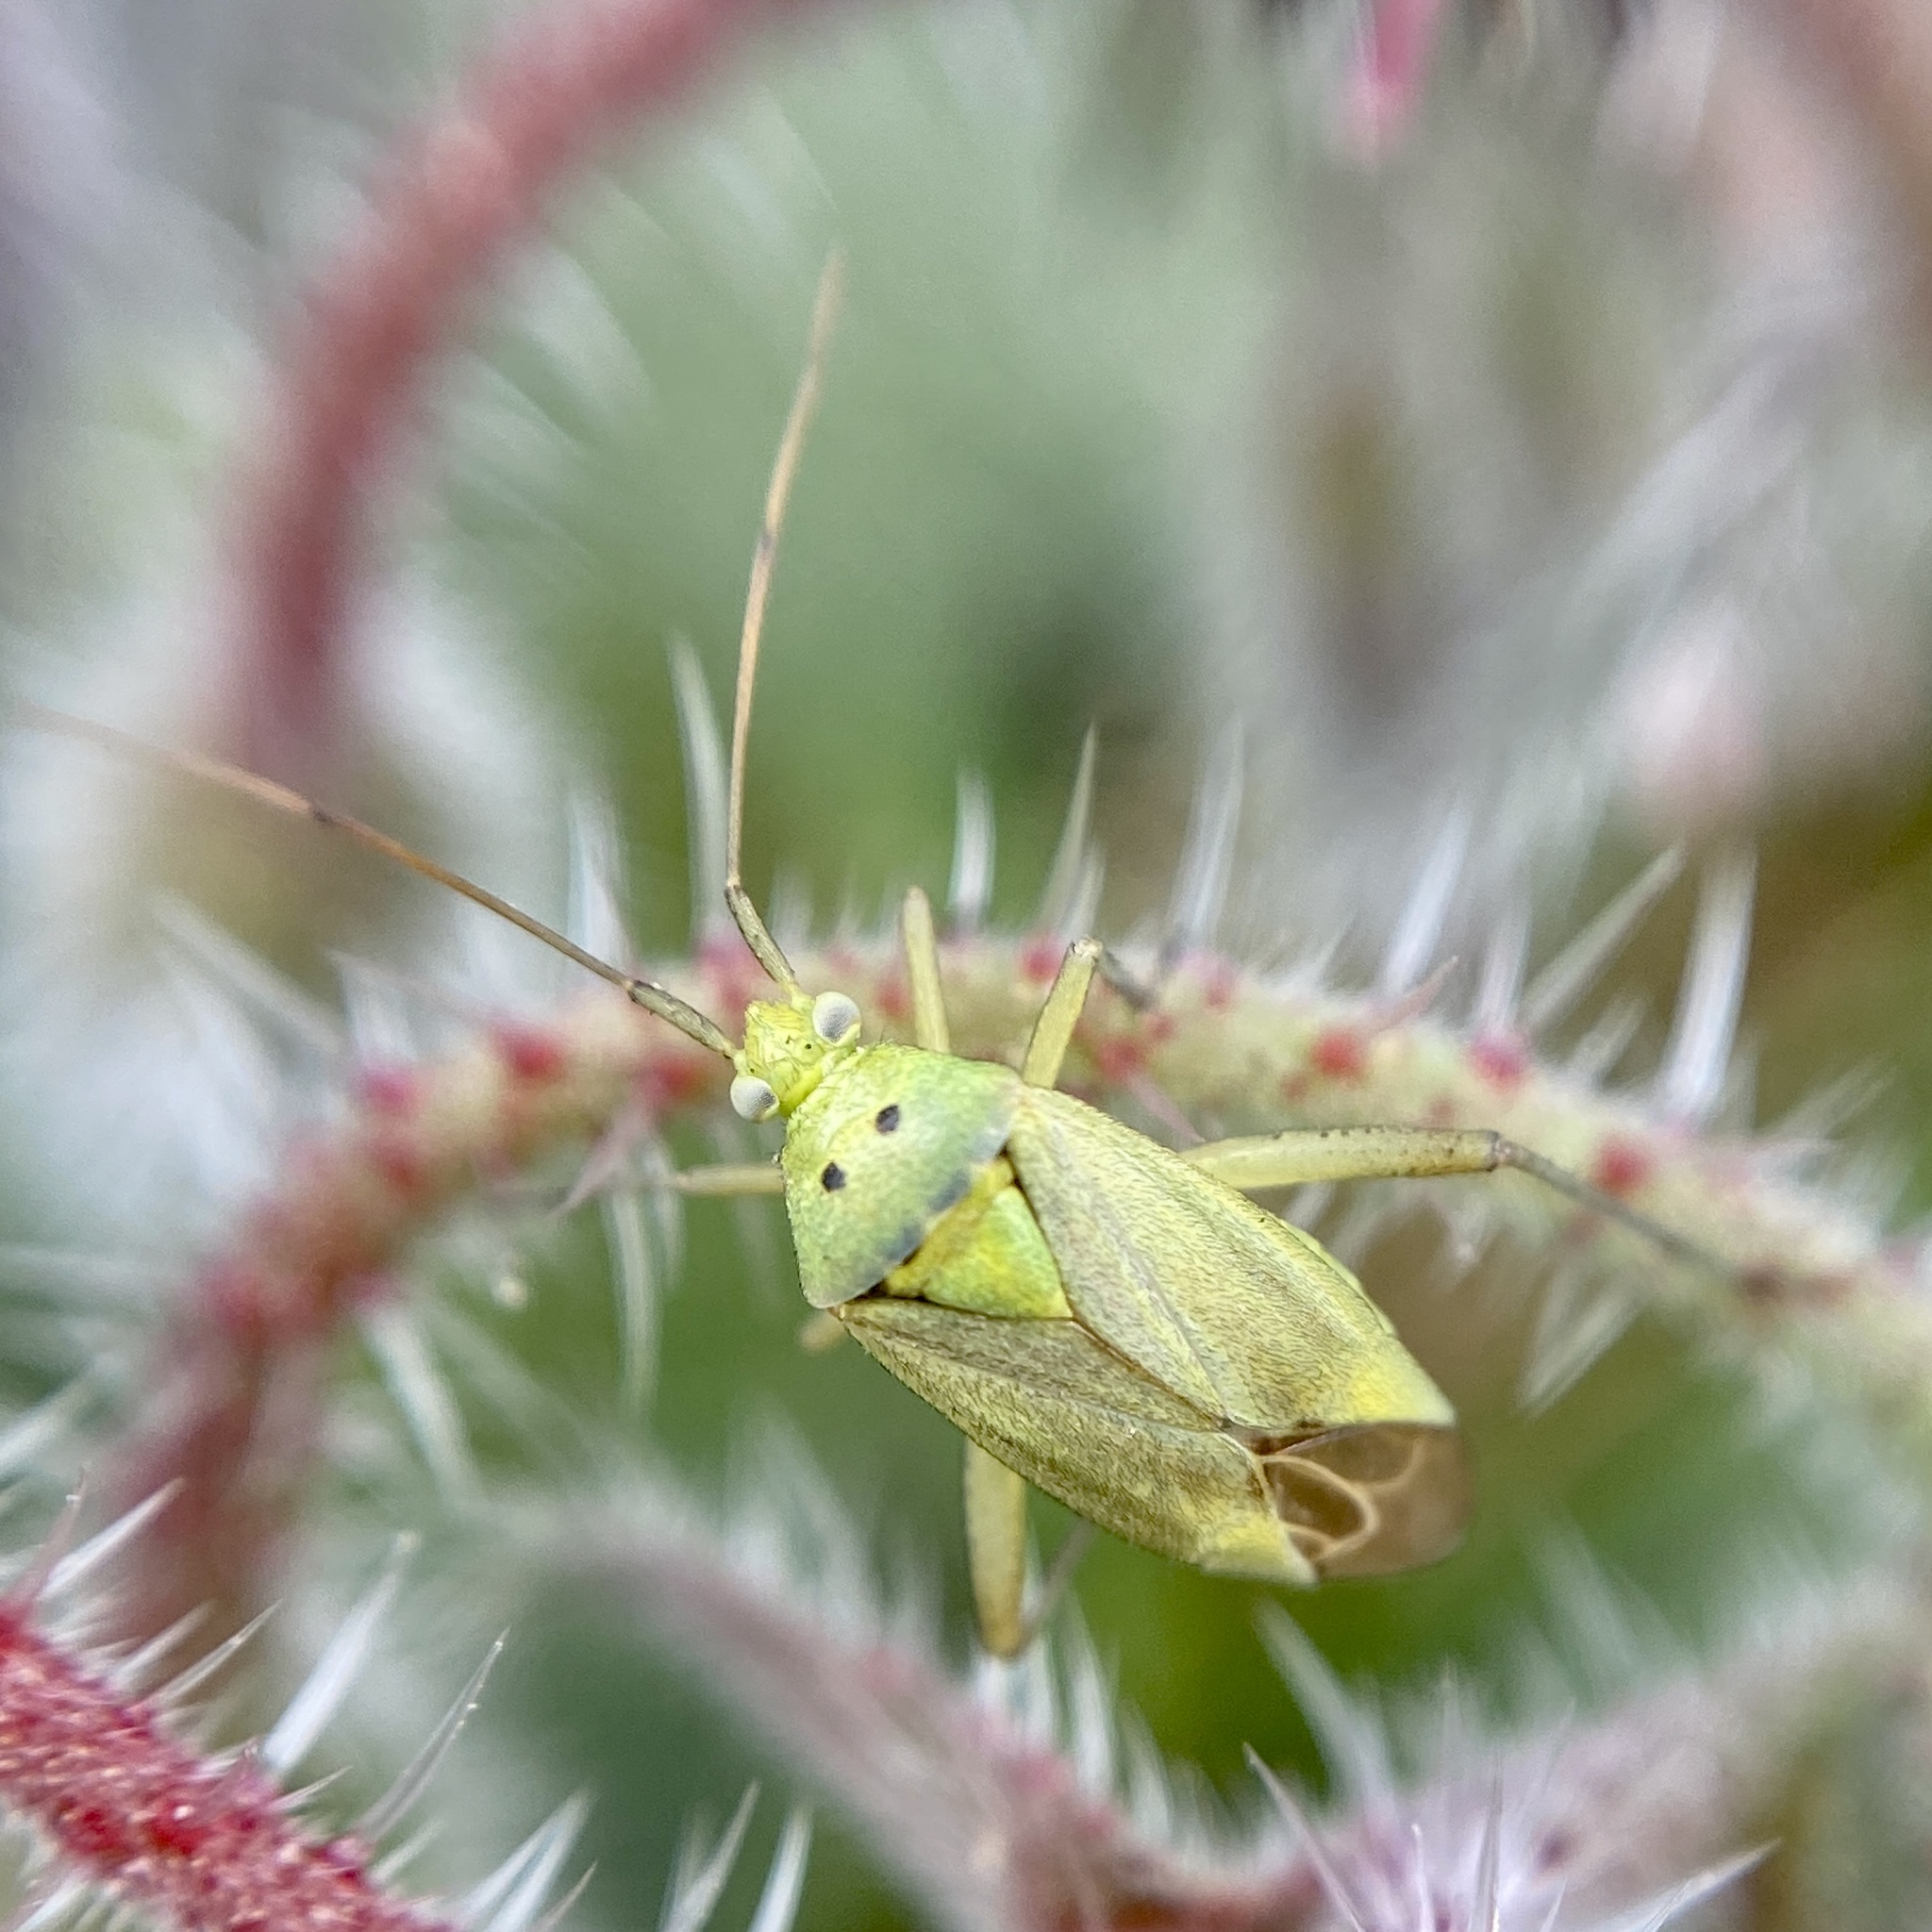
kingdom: Animalia
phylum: Arthropoda
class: Insecta
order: Hemiptera
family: Miridae
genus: Closterotomus
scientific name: Closterotomus norvegicus
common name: Plant bug
